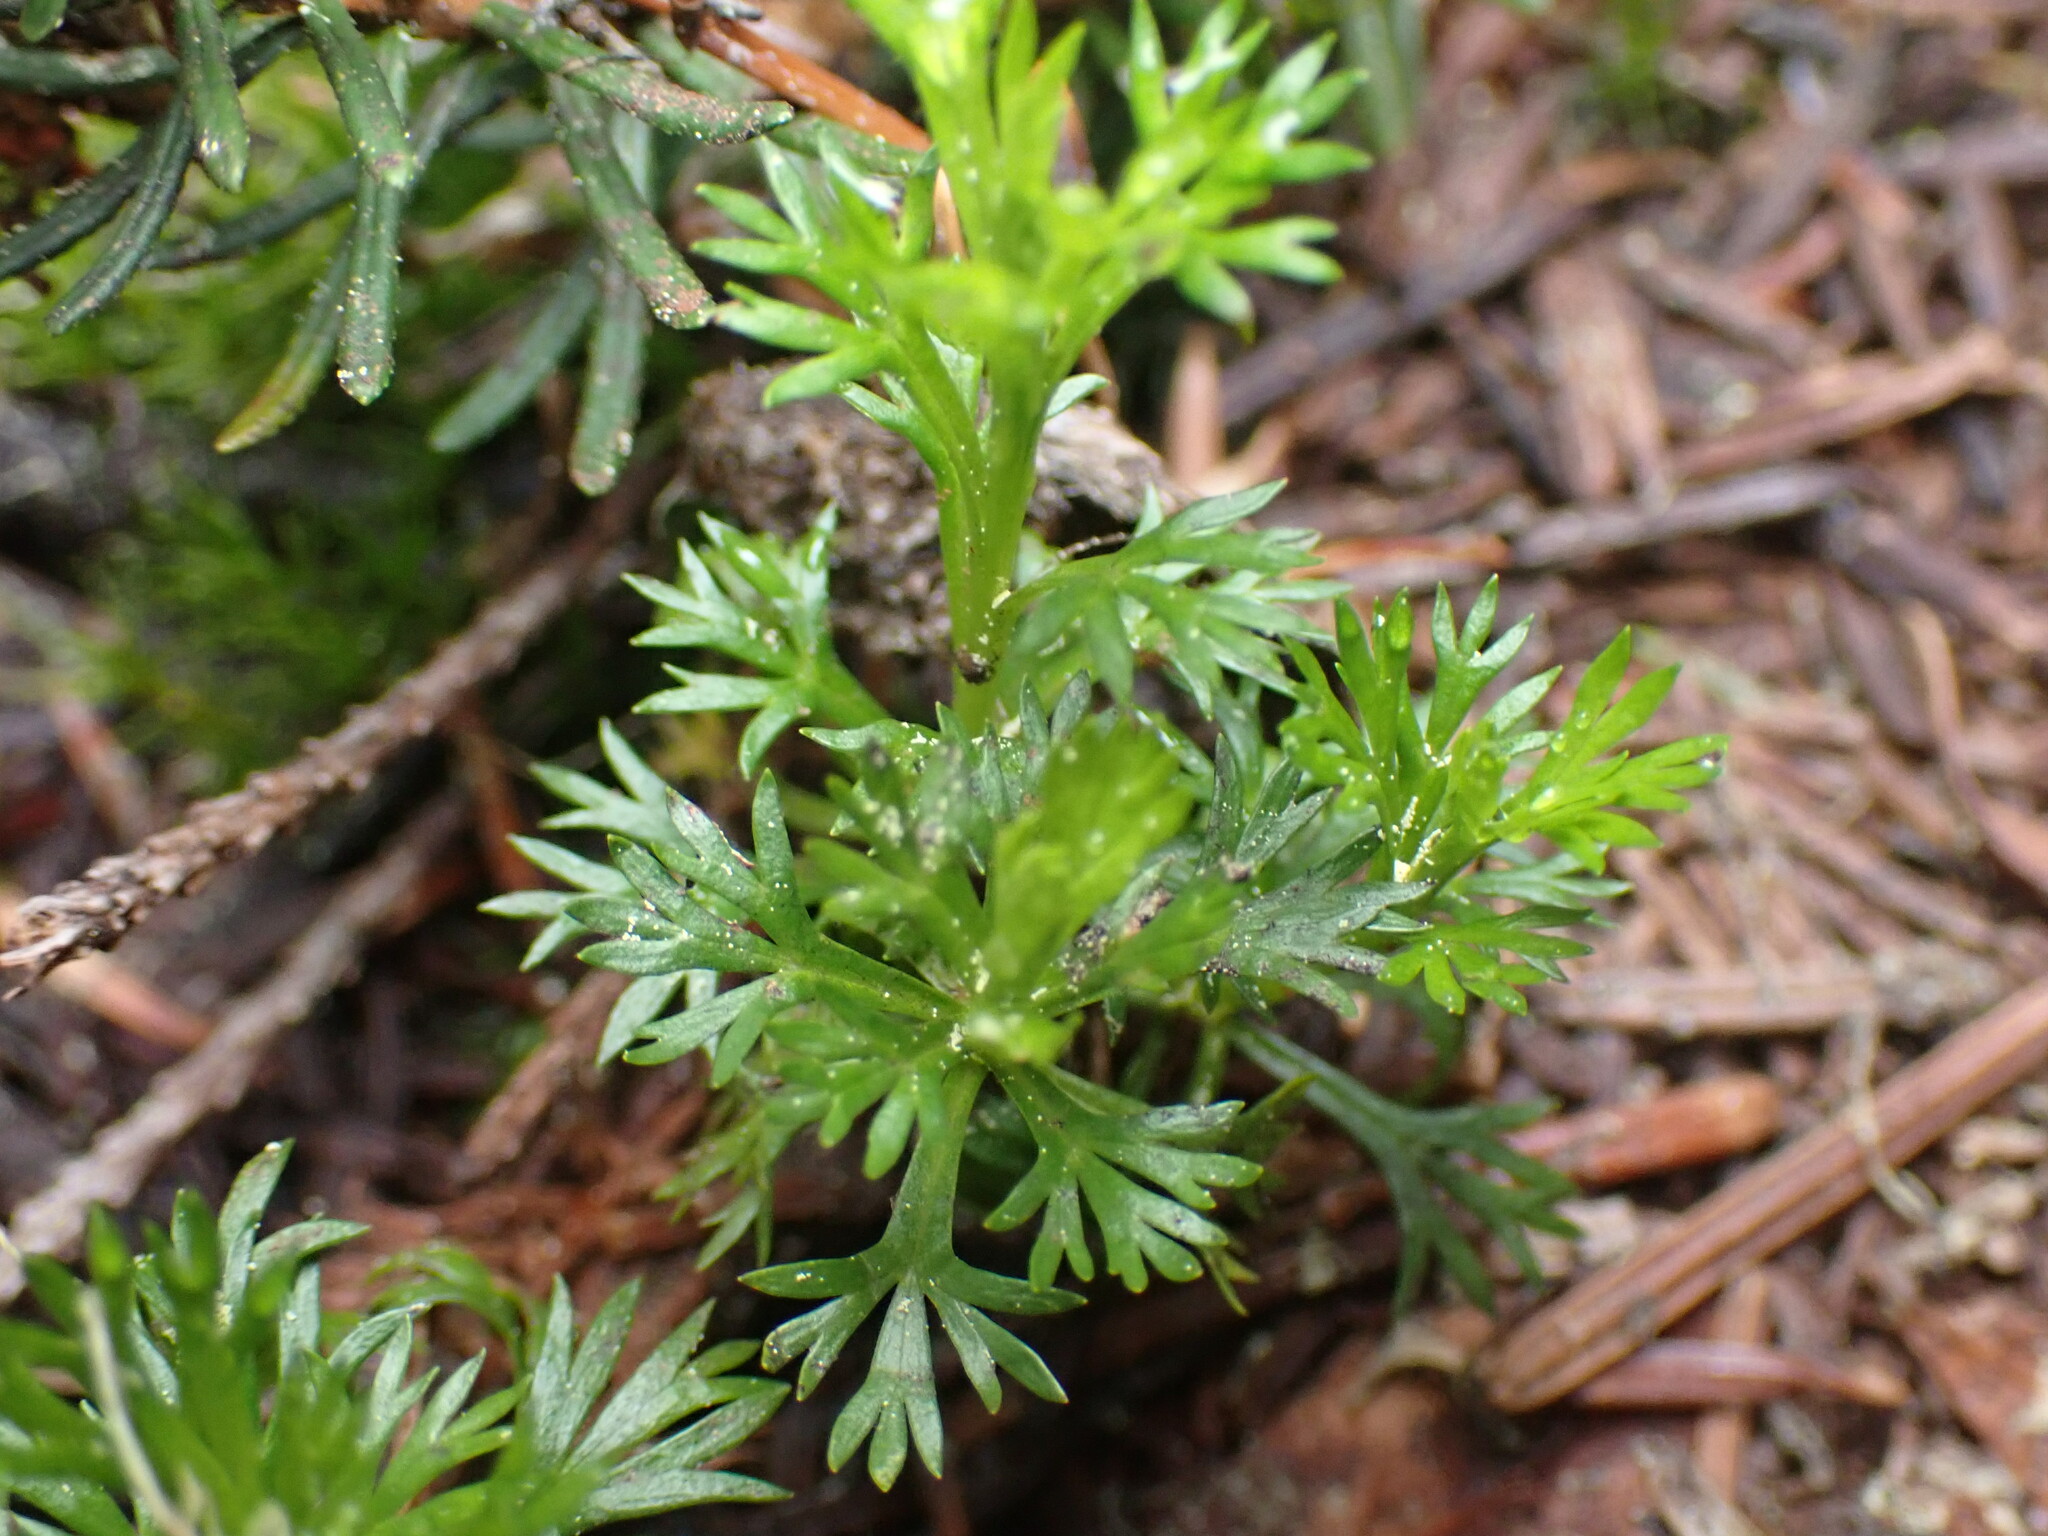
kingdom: Plantae
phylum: Tracheophyta
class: Magnoliopsida
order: Asterales
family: Asteraceae
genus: Matricaria
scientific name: Matricaria discoidea
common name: Disc mayweed
